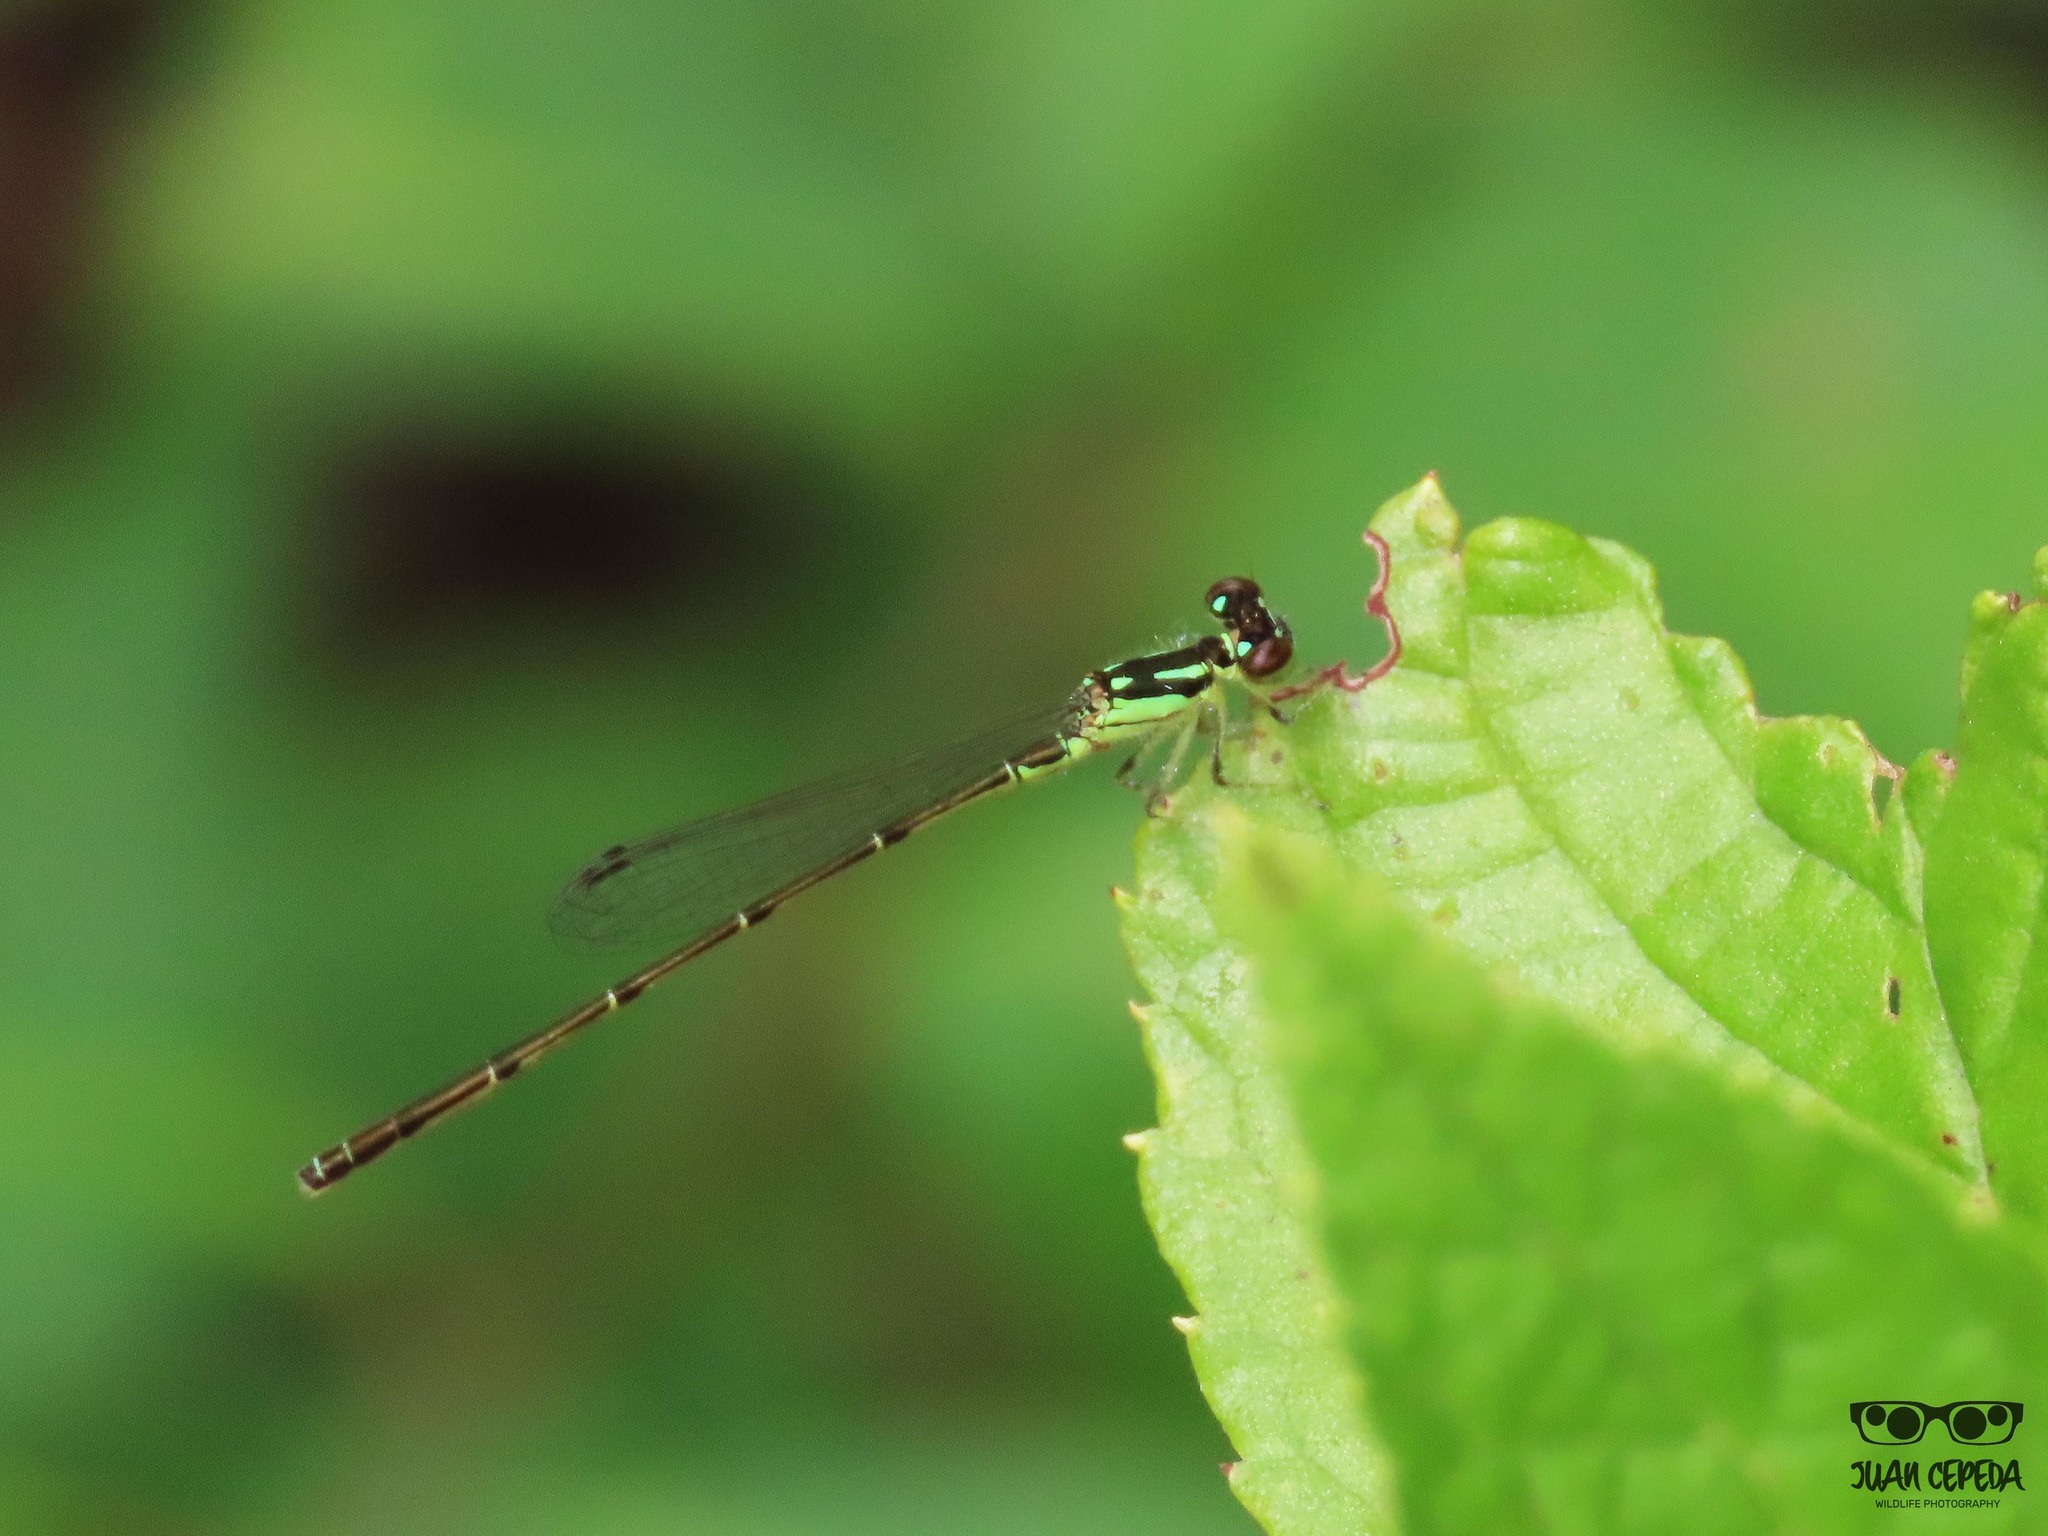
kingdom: Animalia
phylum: Arthropoda
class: Insecta
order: Odonata
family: Coenagrionidae
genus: Ischnura
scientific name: Ischnura posita
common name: Fragile forktail
